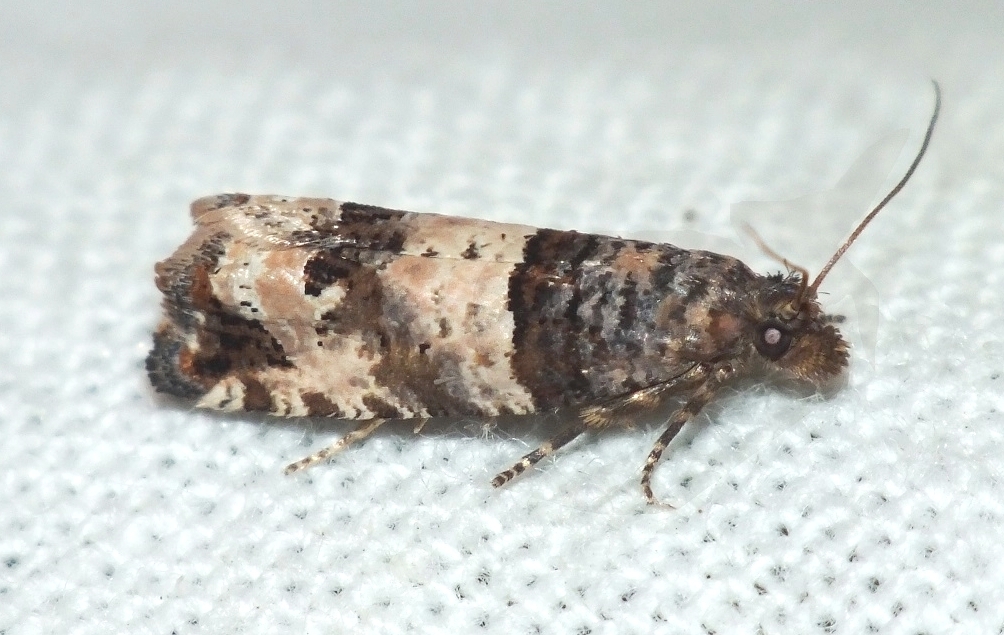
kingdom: Animalia
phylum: Arthropoda
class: Insecta
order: Lepidoptera
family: Tortricidae
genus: Notocelia
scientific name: Notocelia trimaculana
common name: Triple-blotched bell
